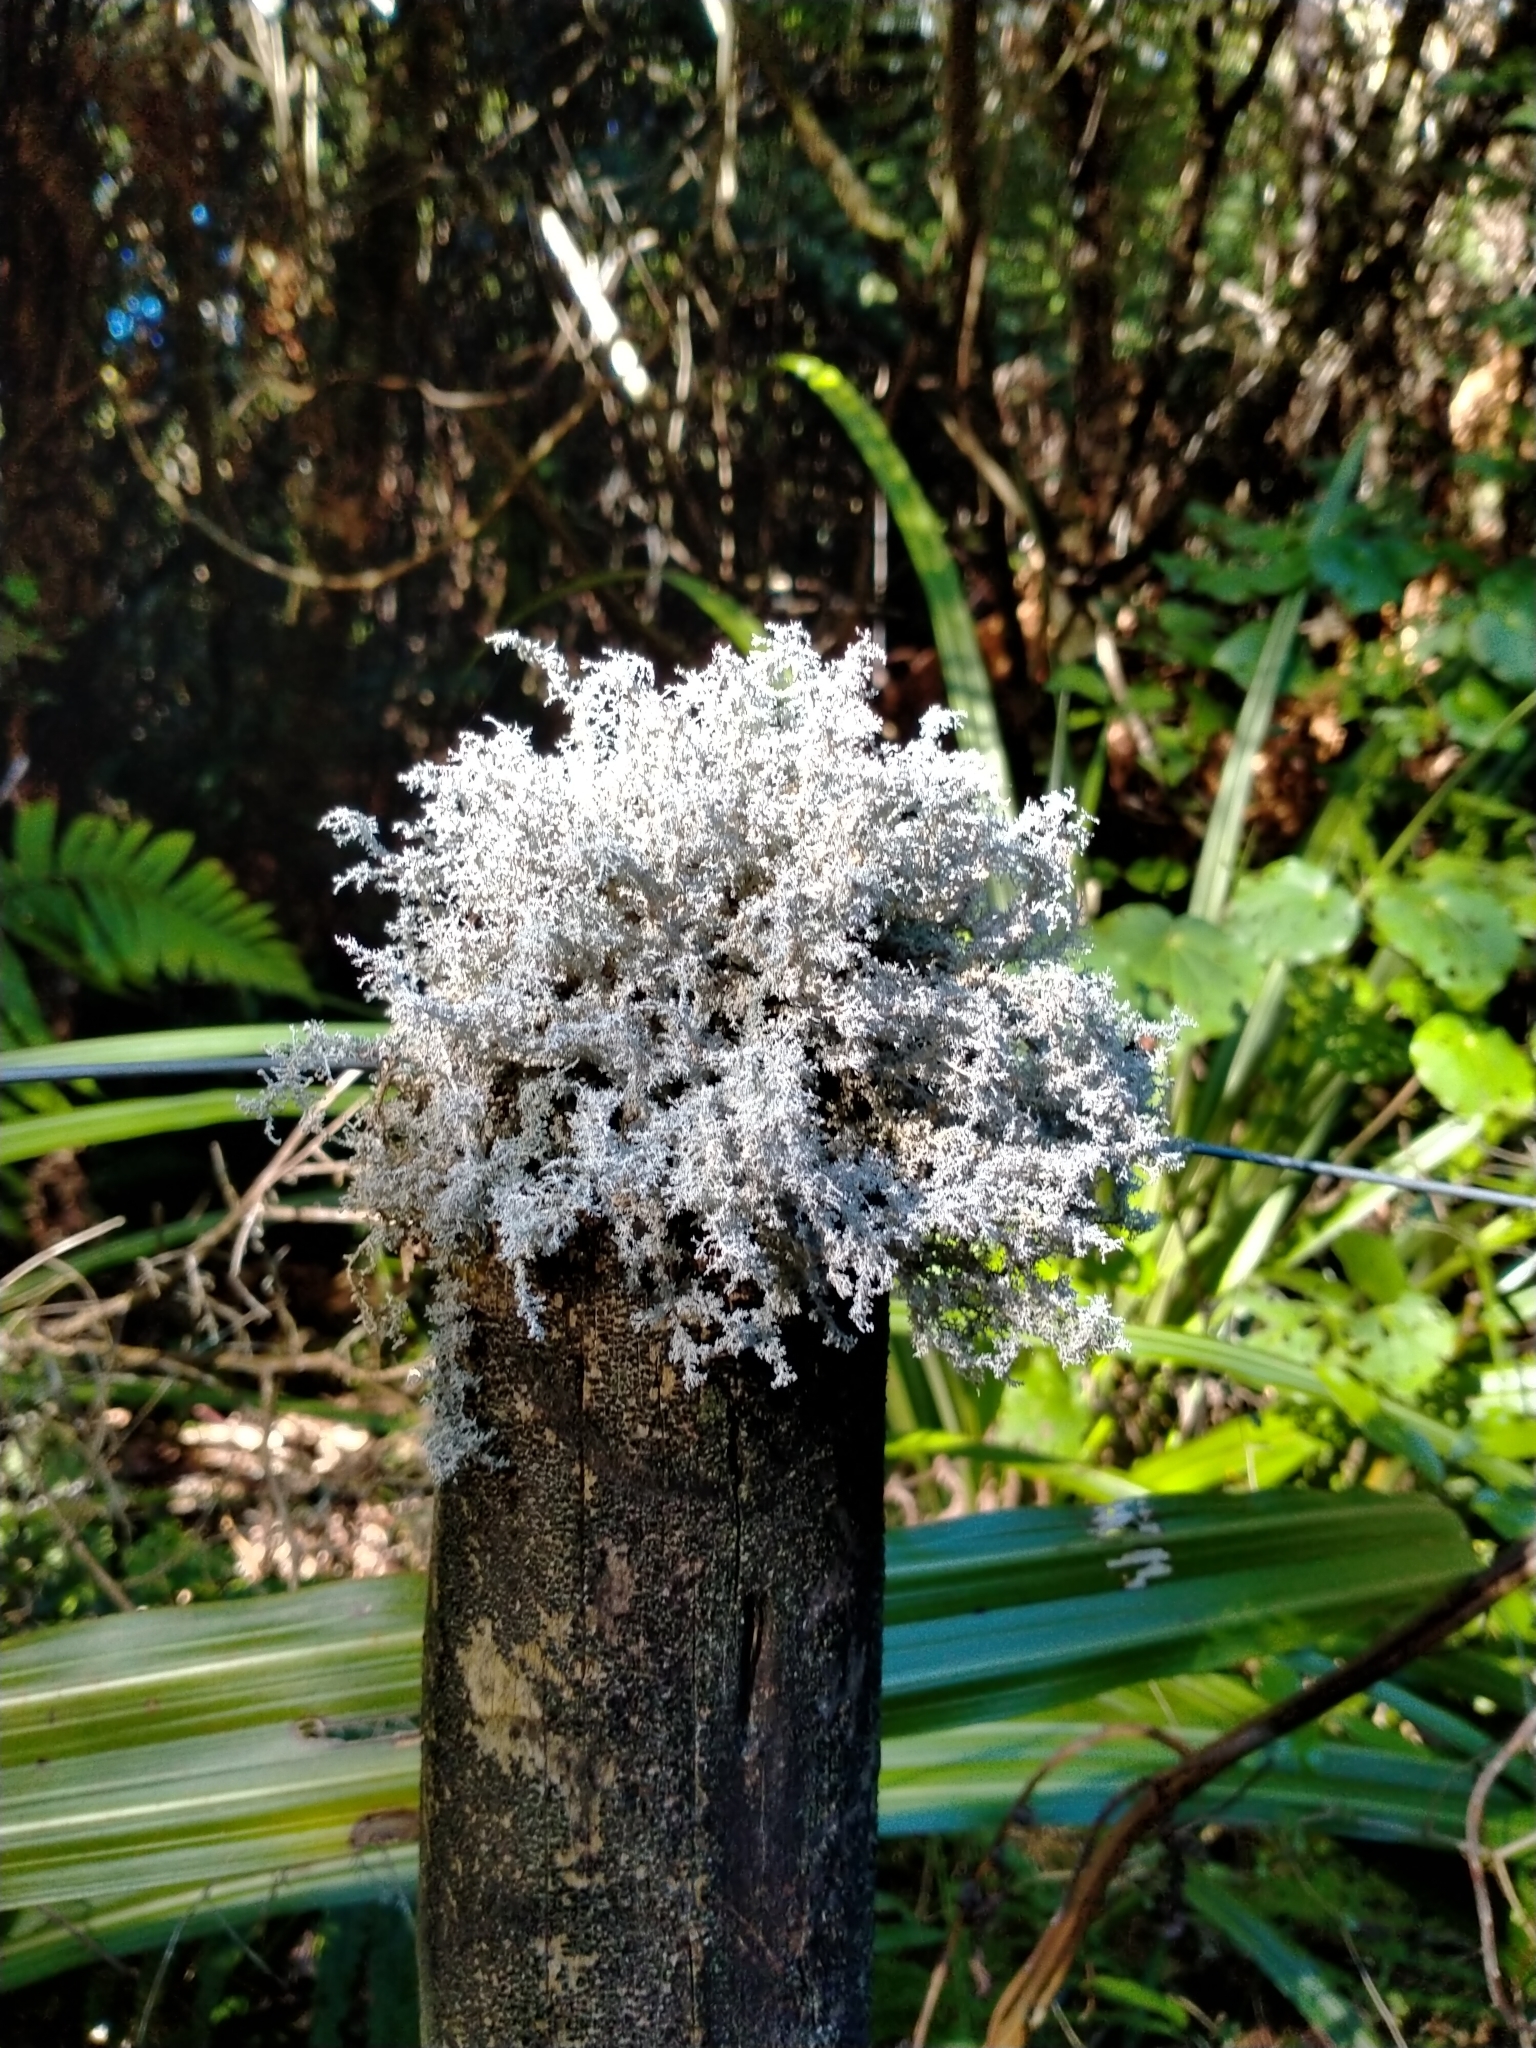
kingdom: Fungi
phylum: Ascomycota
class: Lecanoromycetes
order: Lecanorales
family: Stereocaulaceae
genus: Stereocaulon
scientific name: Stereocaulon ramulosum
